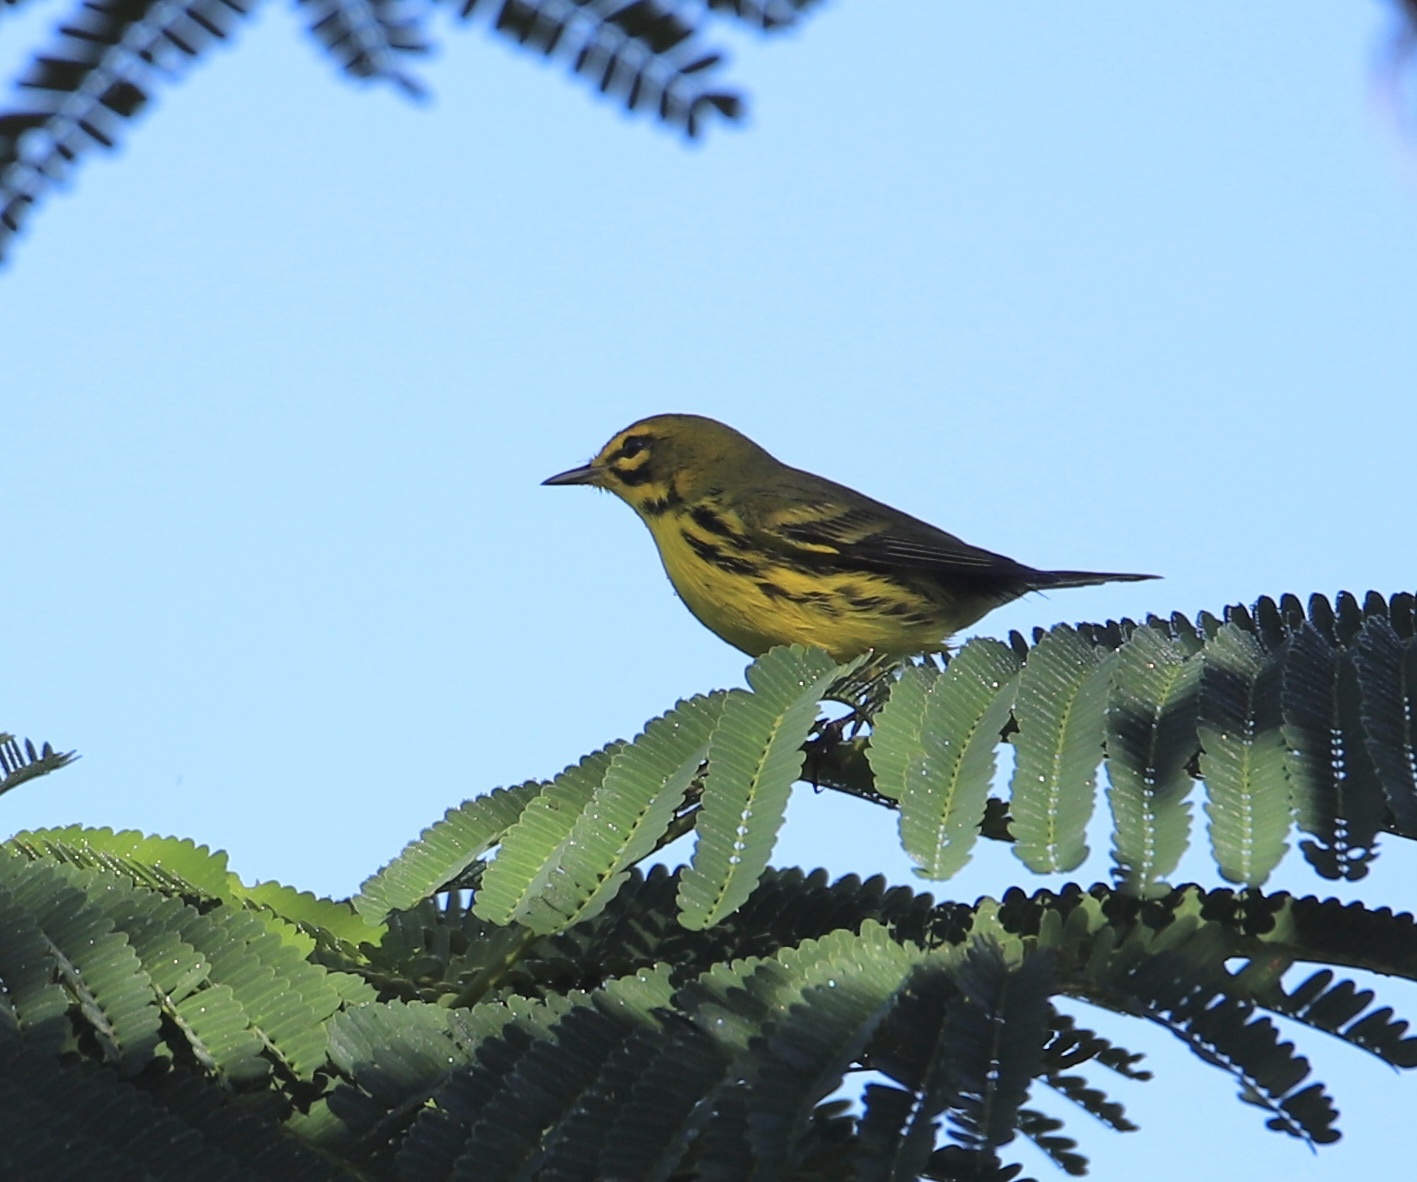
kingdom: Animalia
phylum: Chordata
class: Aves
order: Passeriformes
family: Parulidae
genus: Setophaga
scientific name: Setophaga discolor
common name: Prairie warbler
